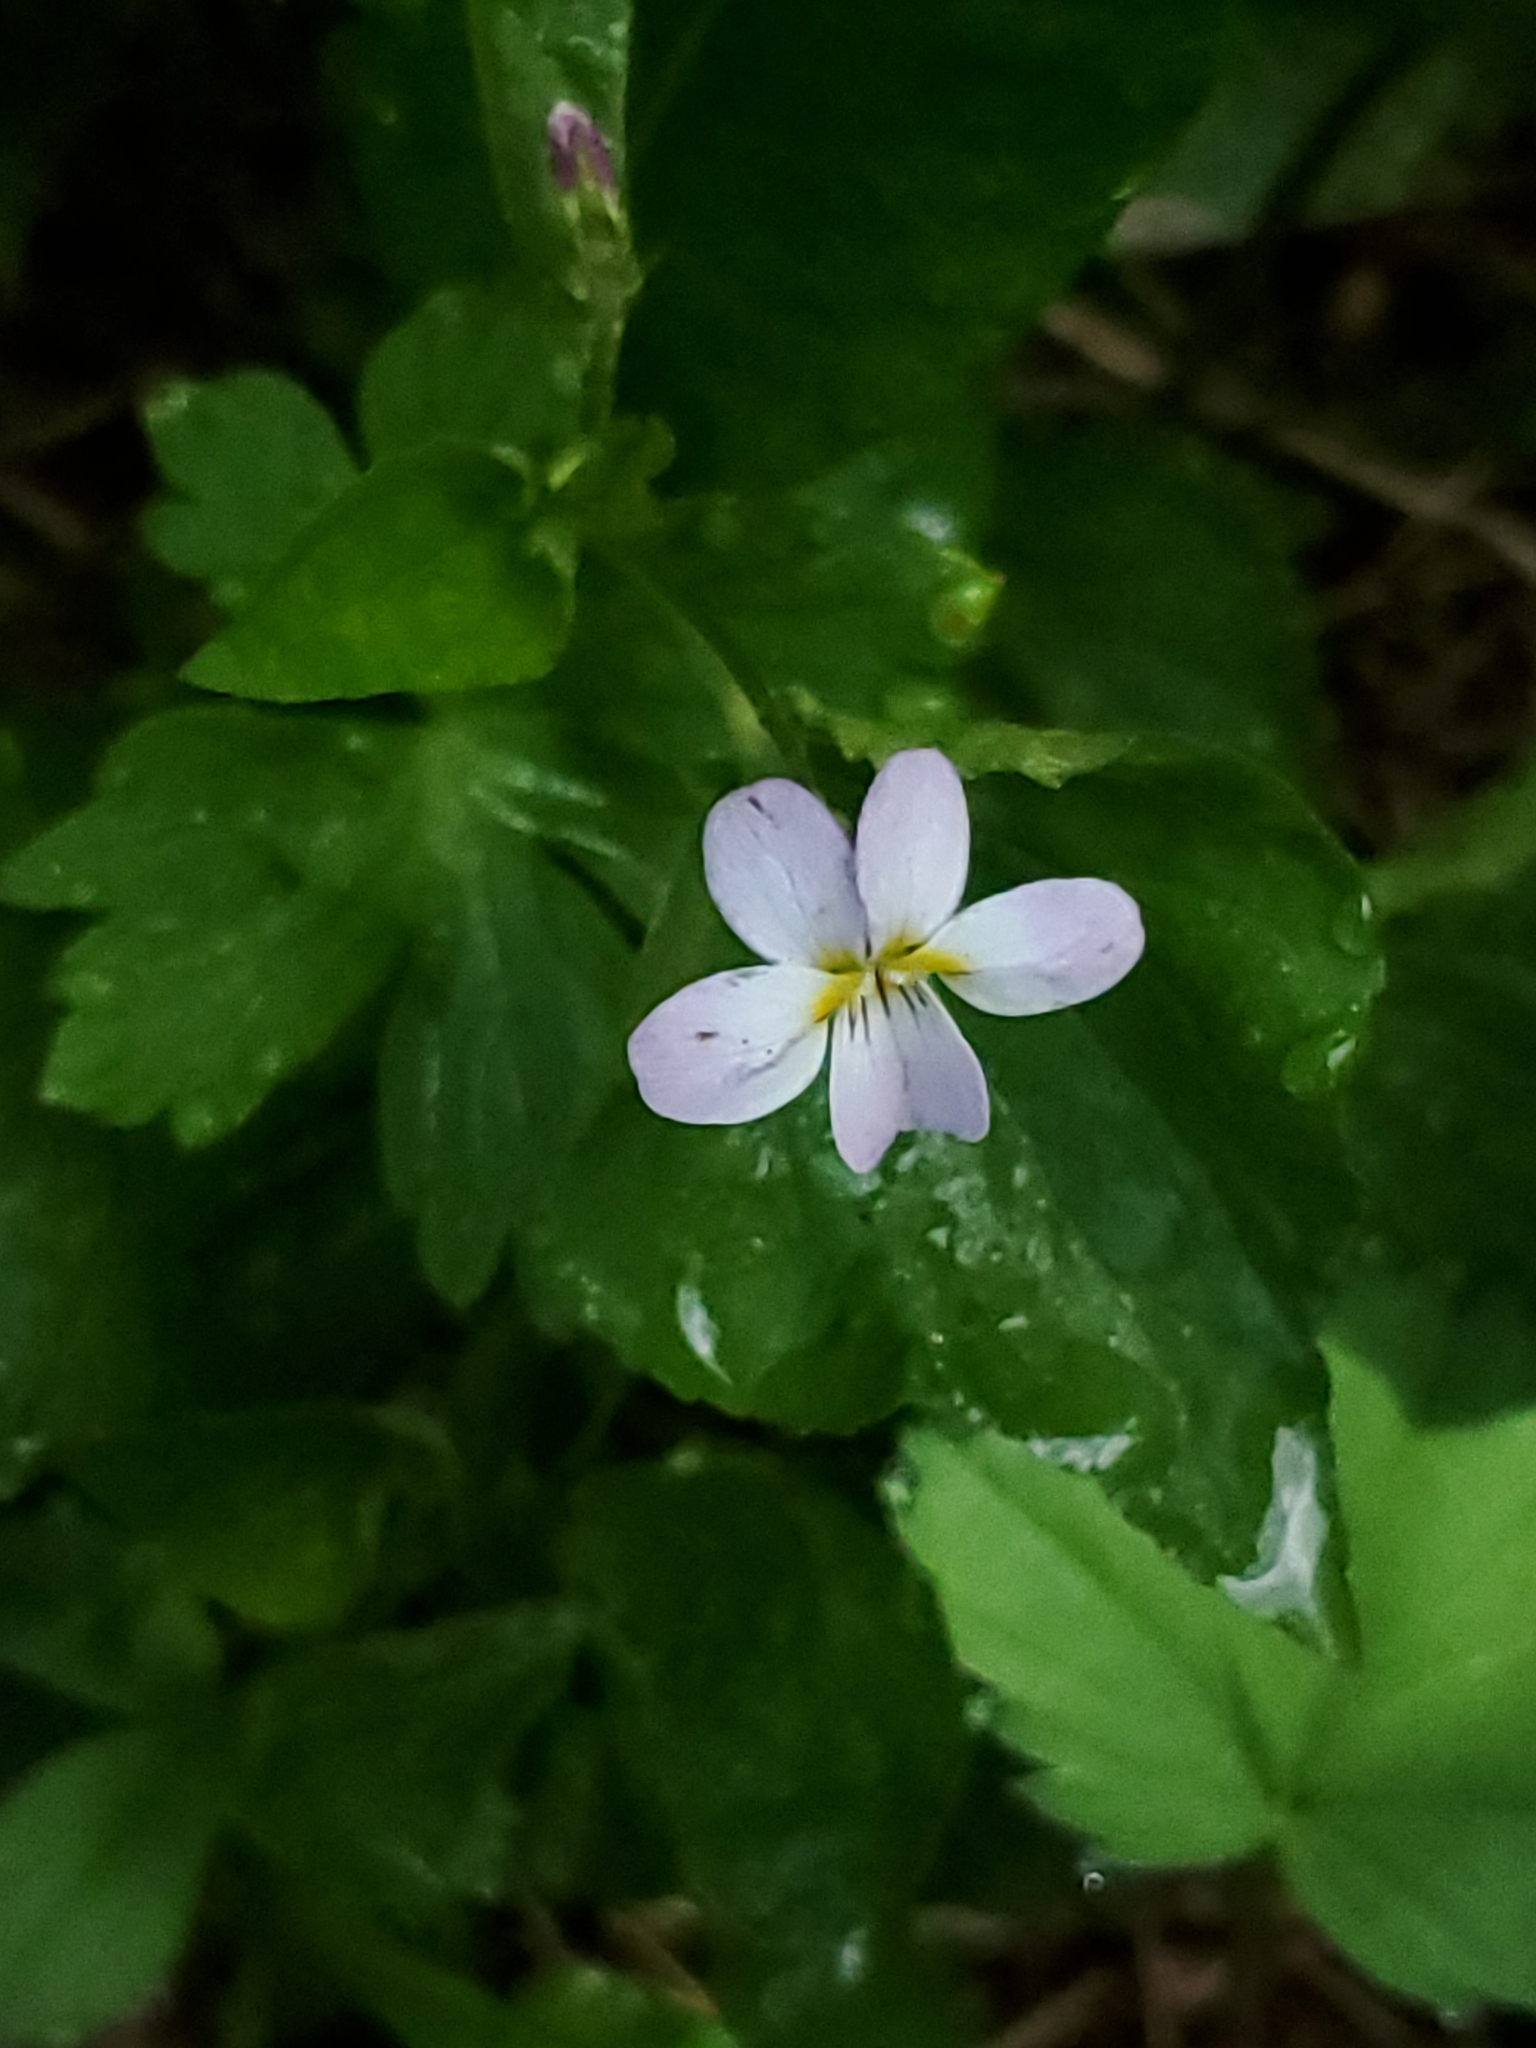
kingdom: Plantae
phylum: Tracheophyta
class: Magnoliopsida
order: Malpighiales
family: Violaceae
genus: Viola
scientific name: Viola canadensis
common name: Canada violet
